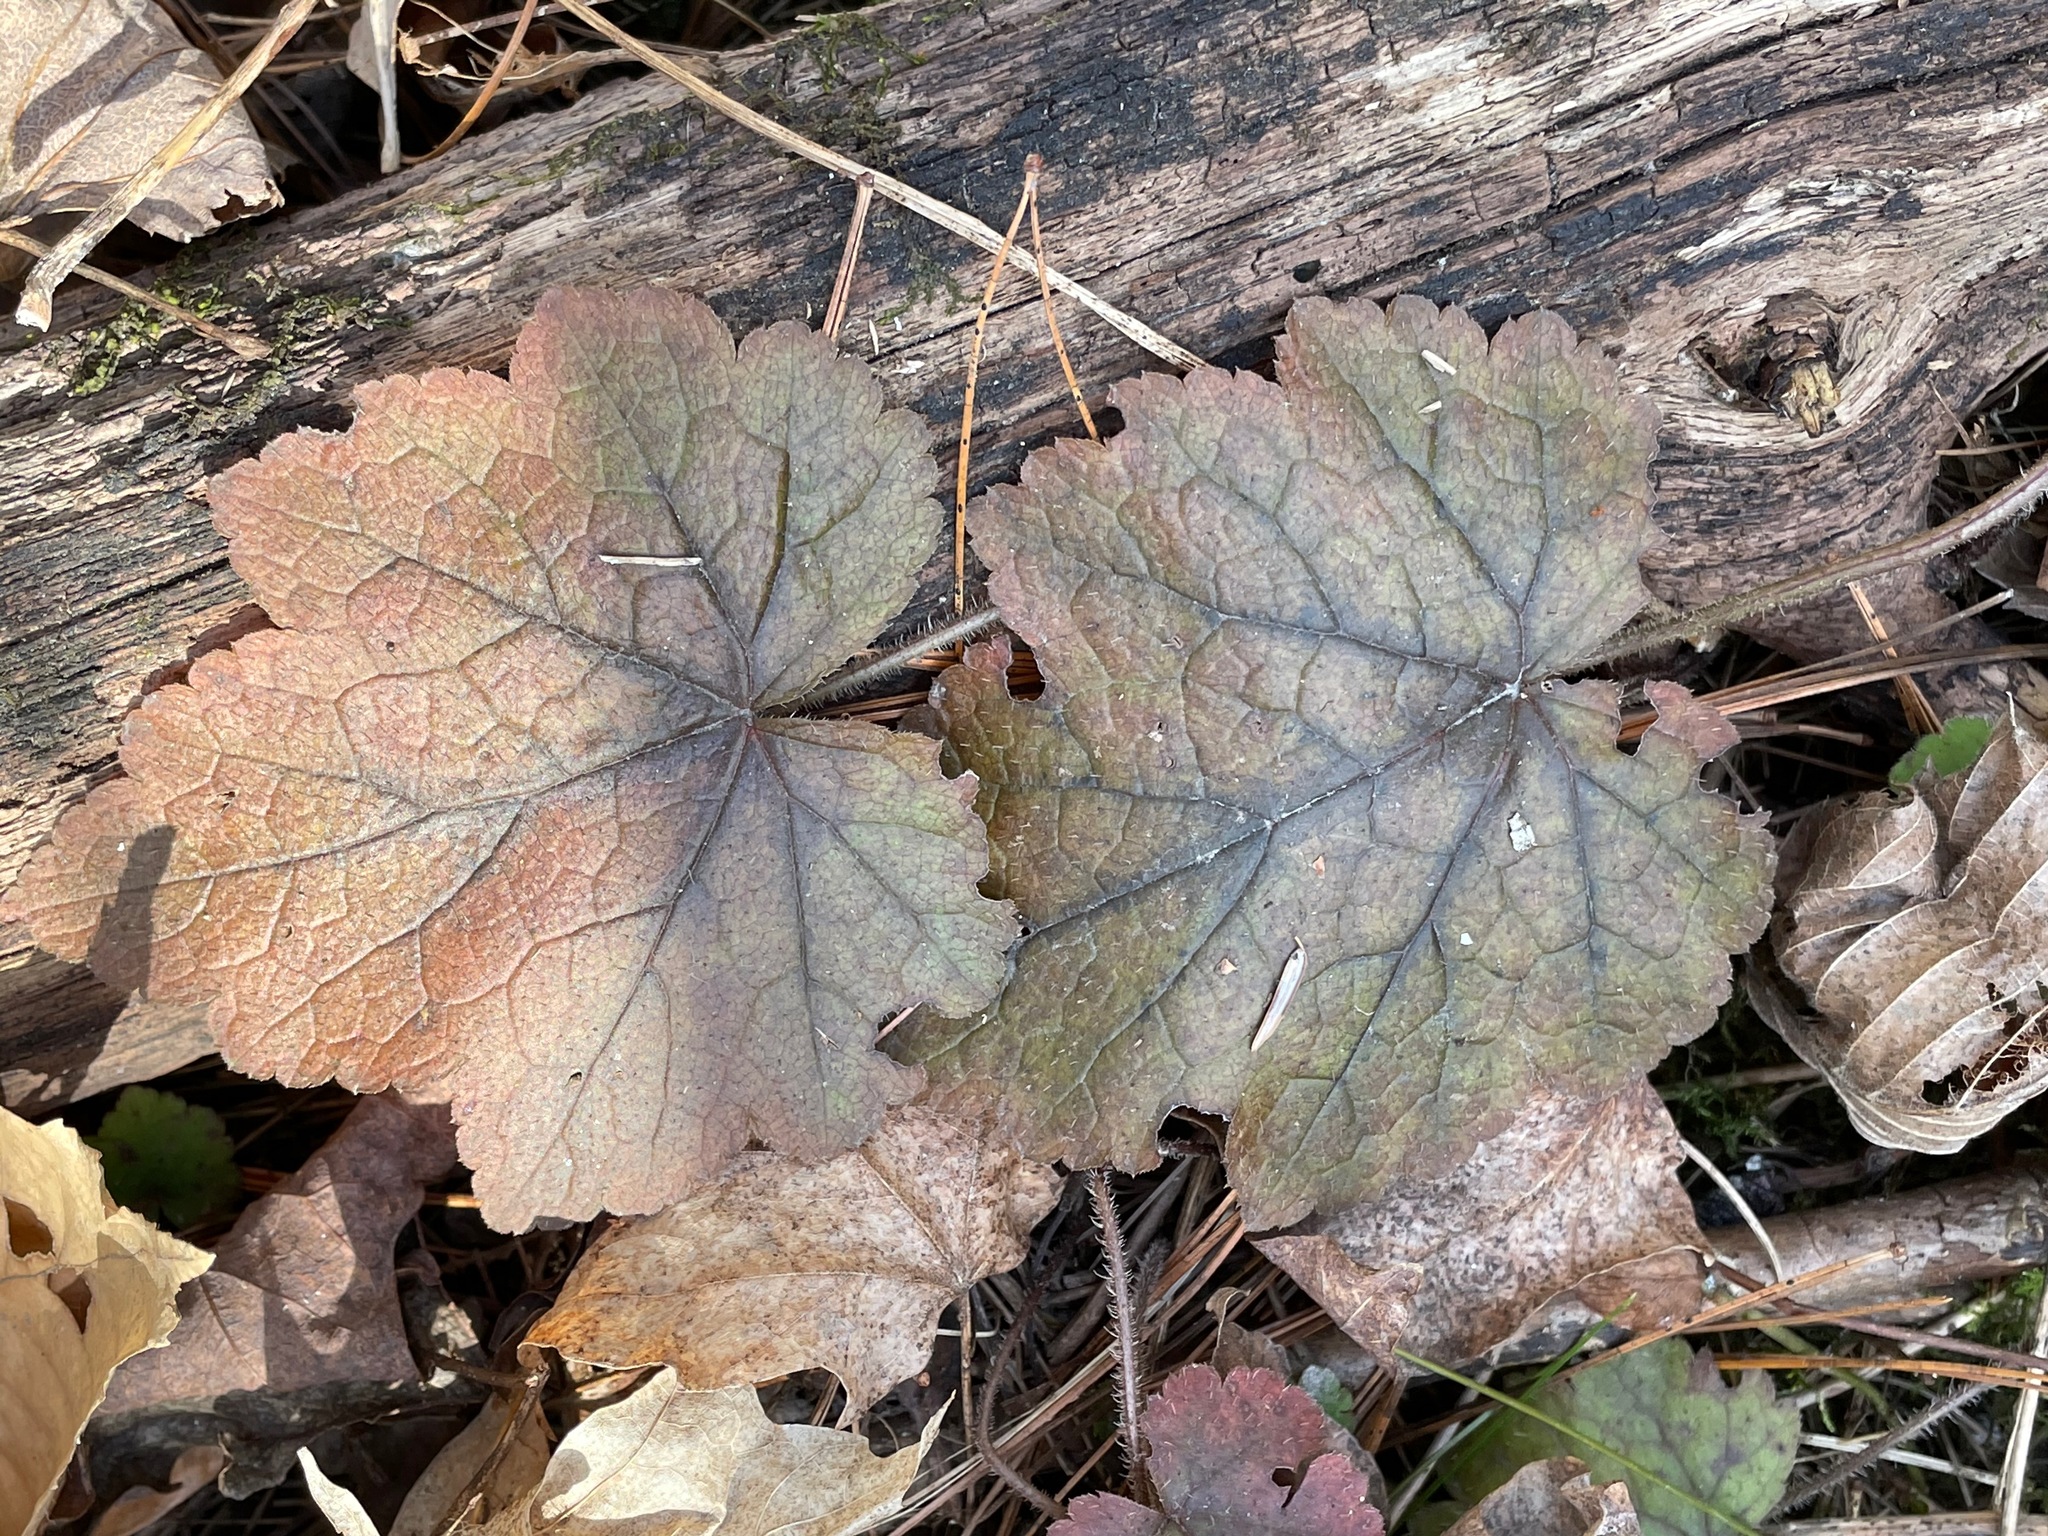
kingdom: Plantae
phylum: Tracheophyta
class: Magnoliopsida
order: Saxifragales
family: Saxifragaceae
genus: Tiarella
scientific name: Tiarella stolonifera
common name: Stoloniferous foamflower
